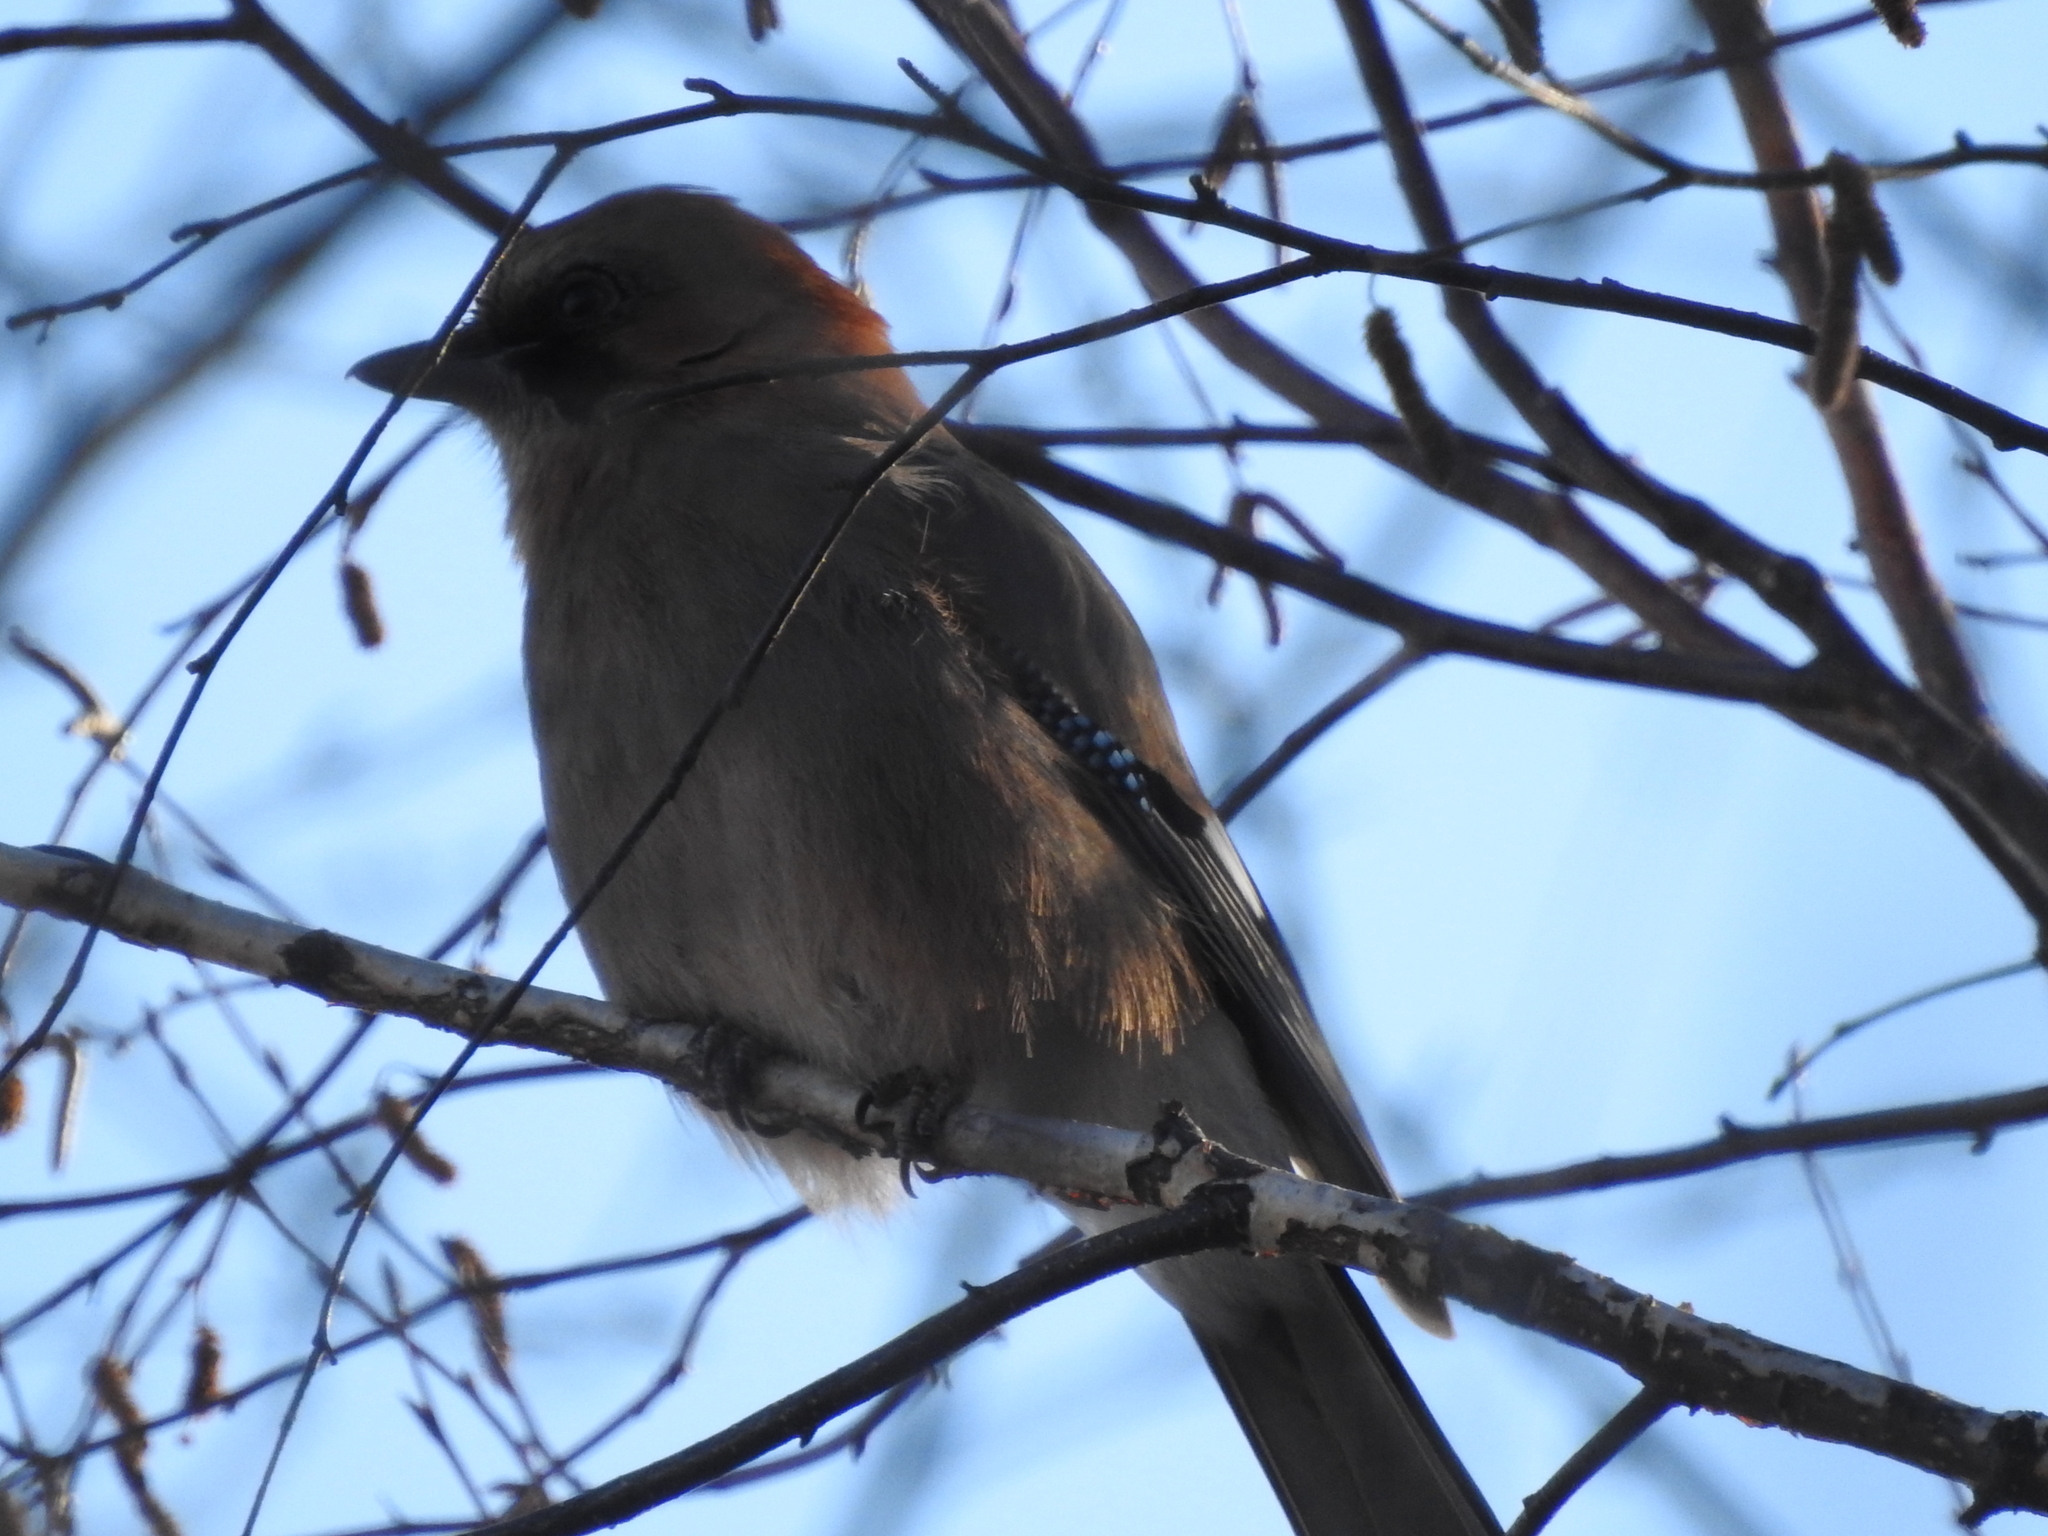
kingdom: Animalia
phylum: Chordata
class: Aves
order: Passeriformes
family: Corvidae
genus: Garrulus
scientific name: Garrulus glandarius
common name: Eurasian jay
